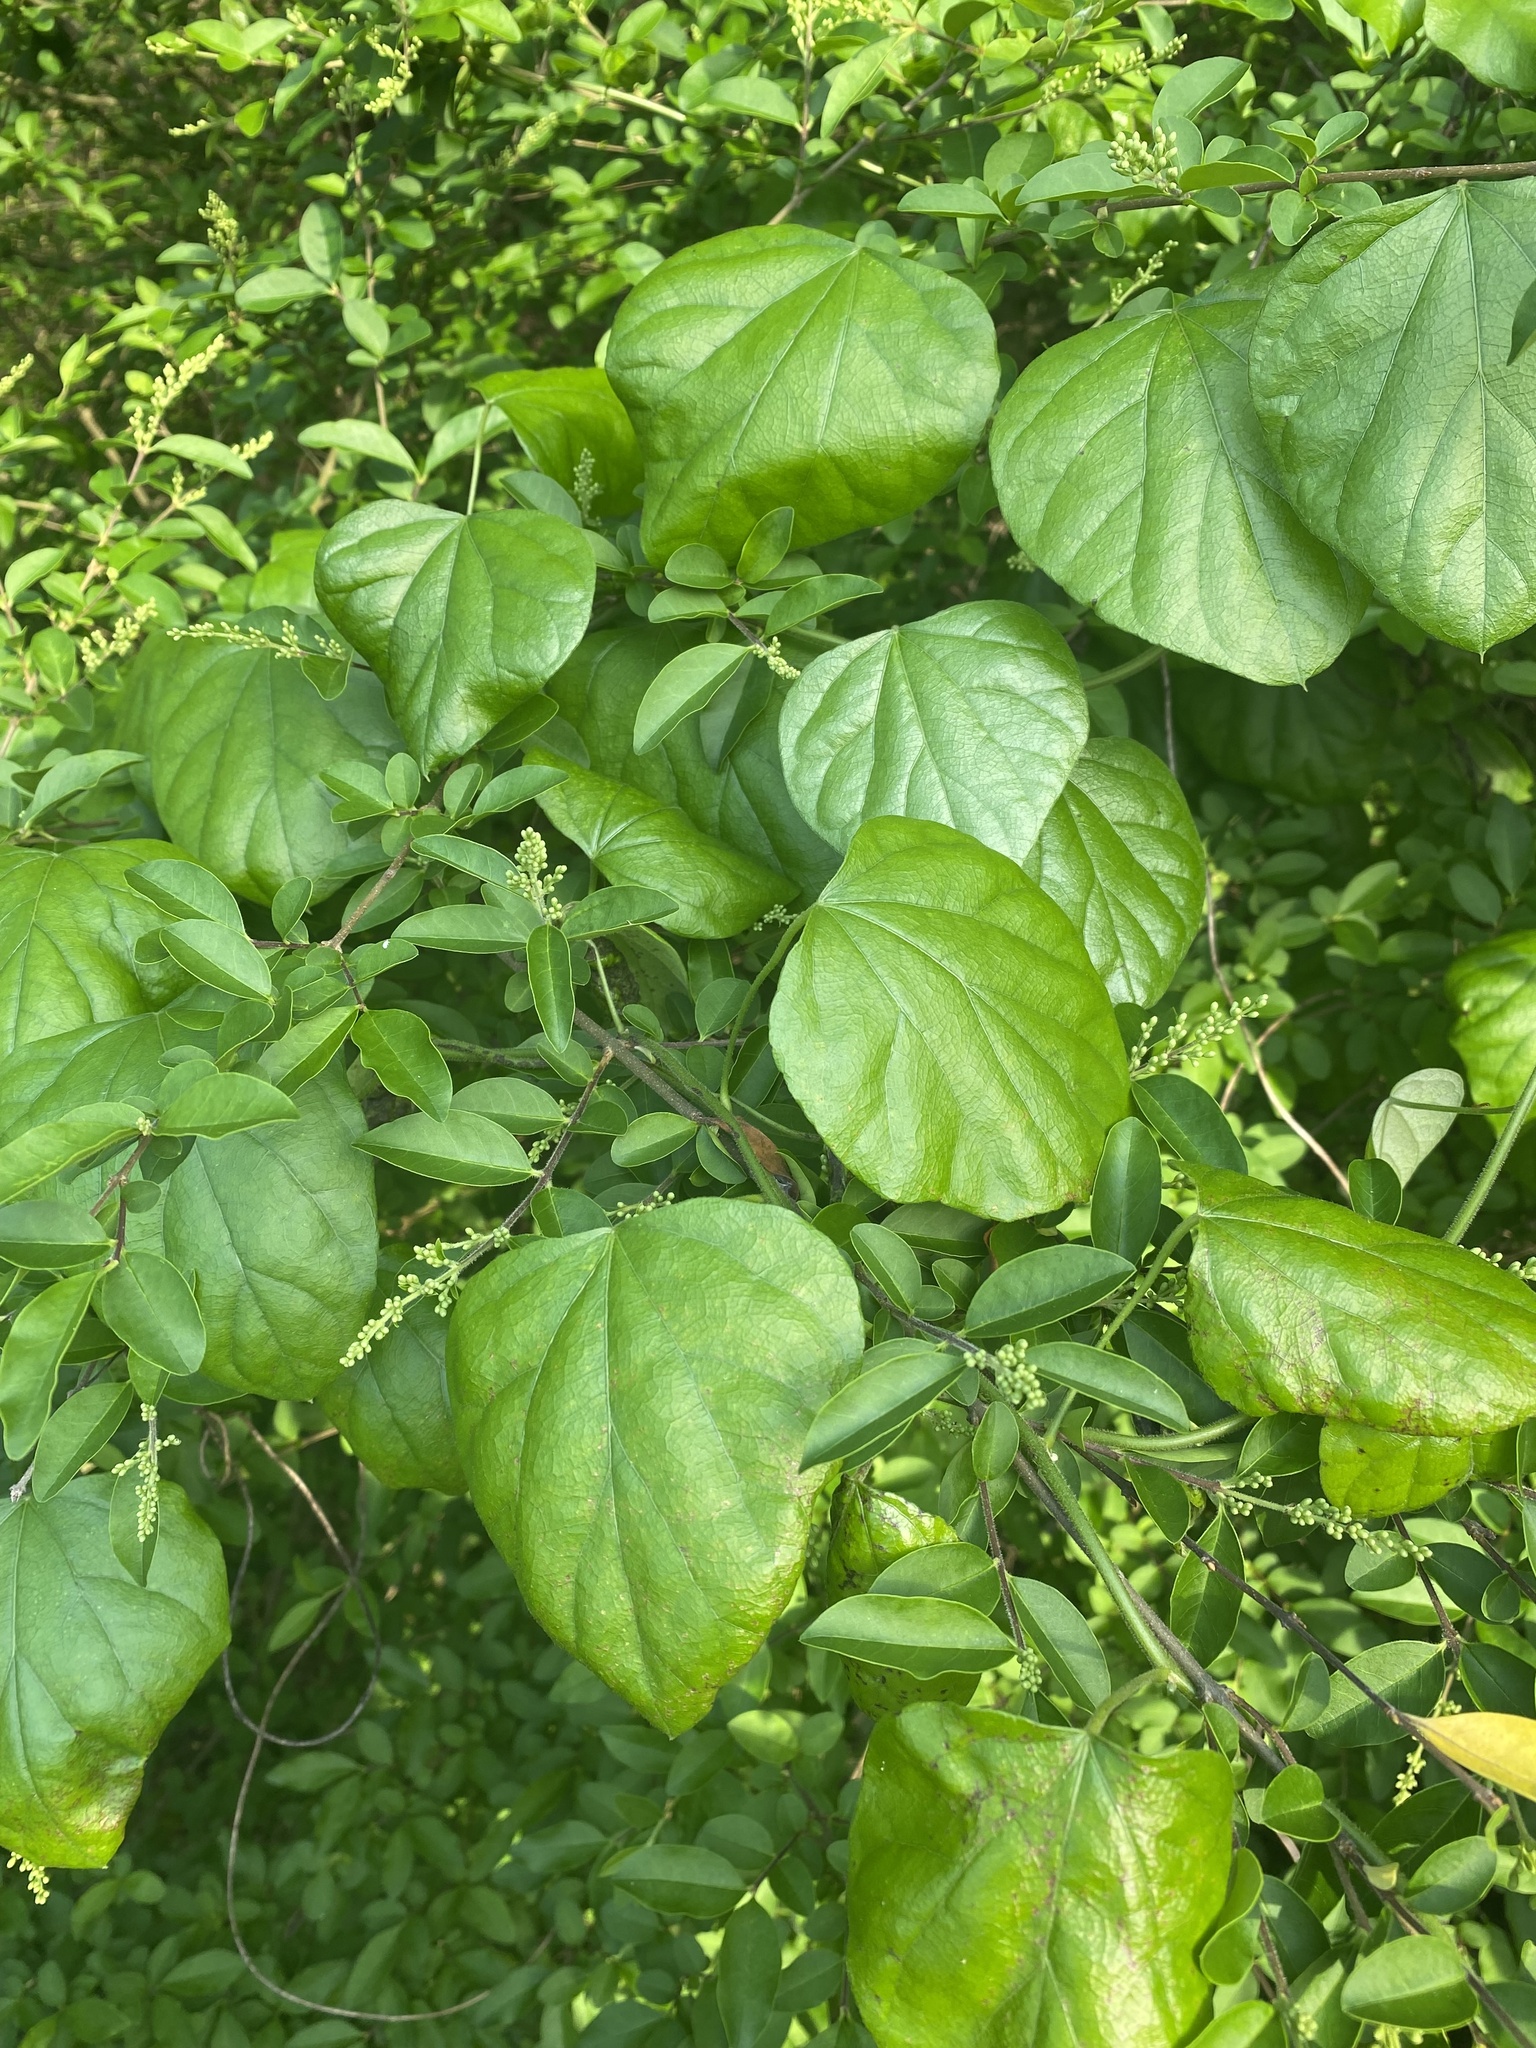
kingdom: Plantae
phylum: Tracheophyta
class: Magnoliopsida
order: Ranunculales
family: Menispermaceae
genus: Cocculus
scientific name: Cocculus carolinus
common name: Carolina moonseed
